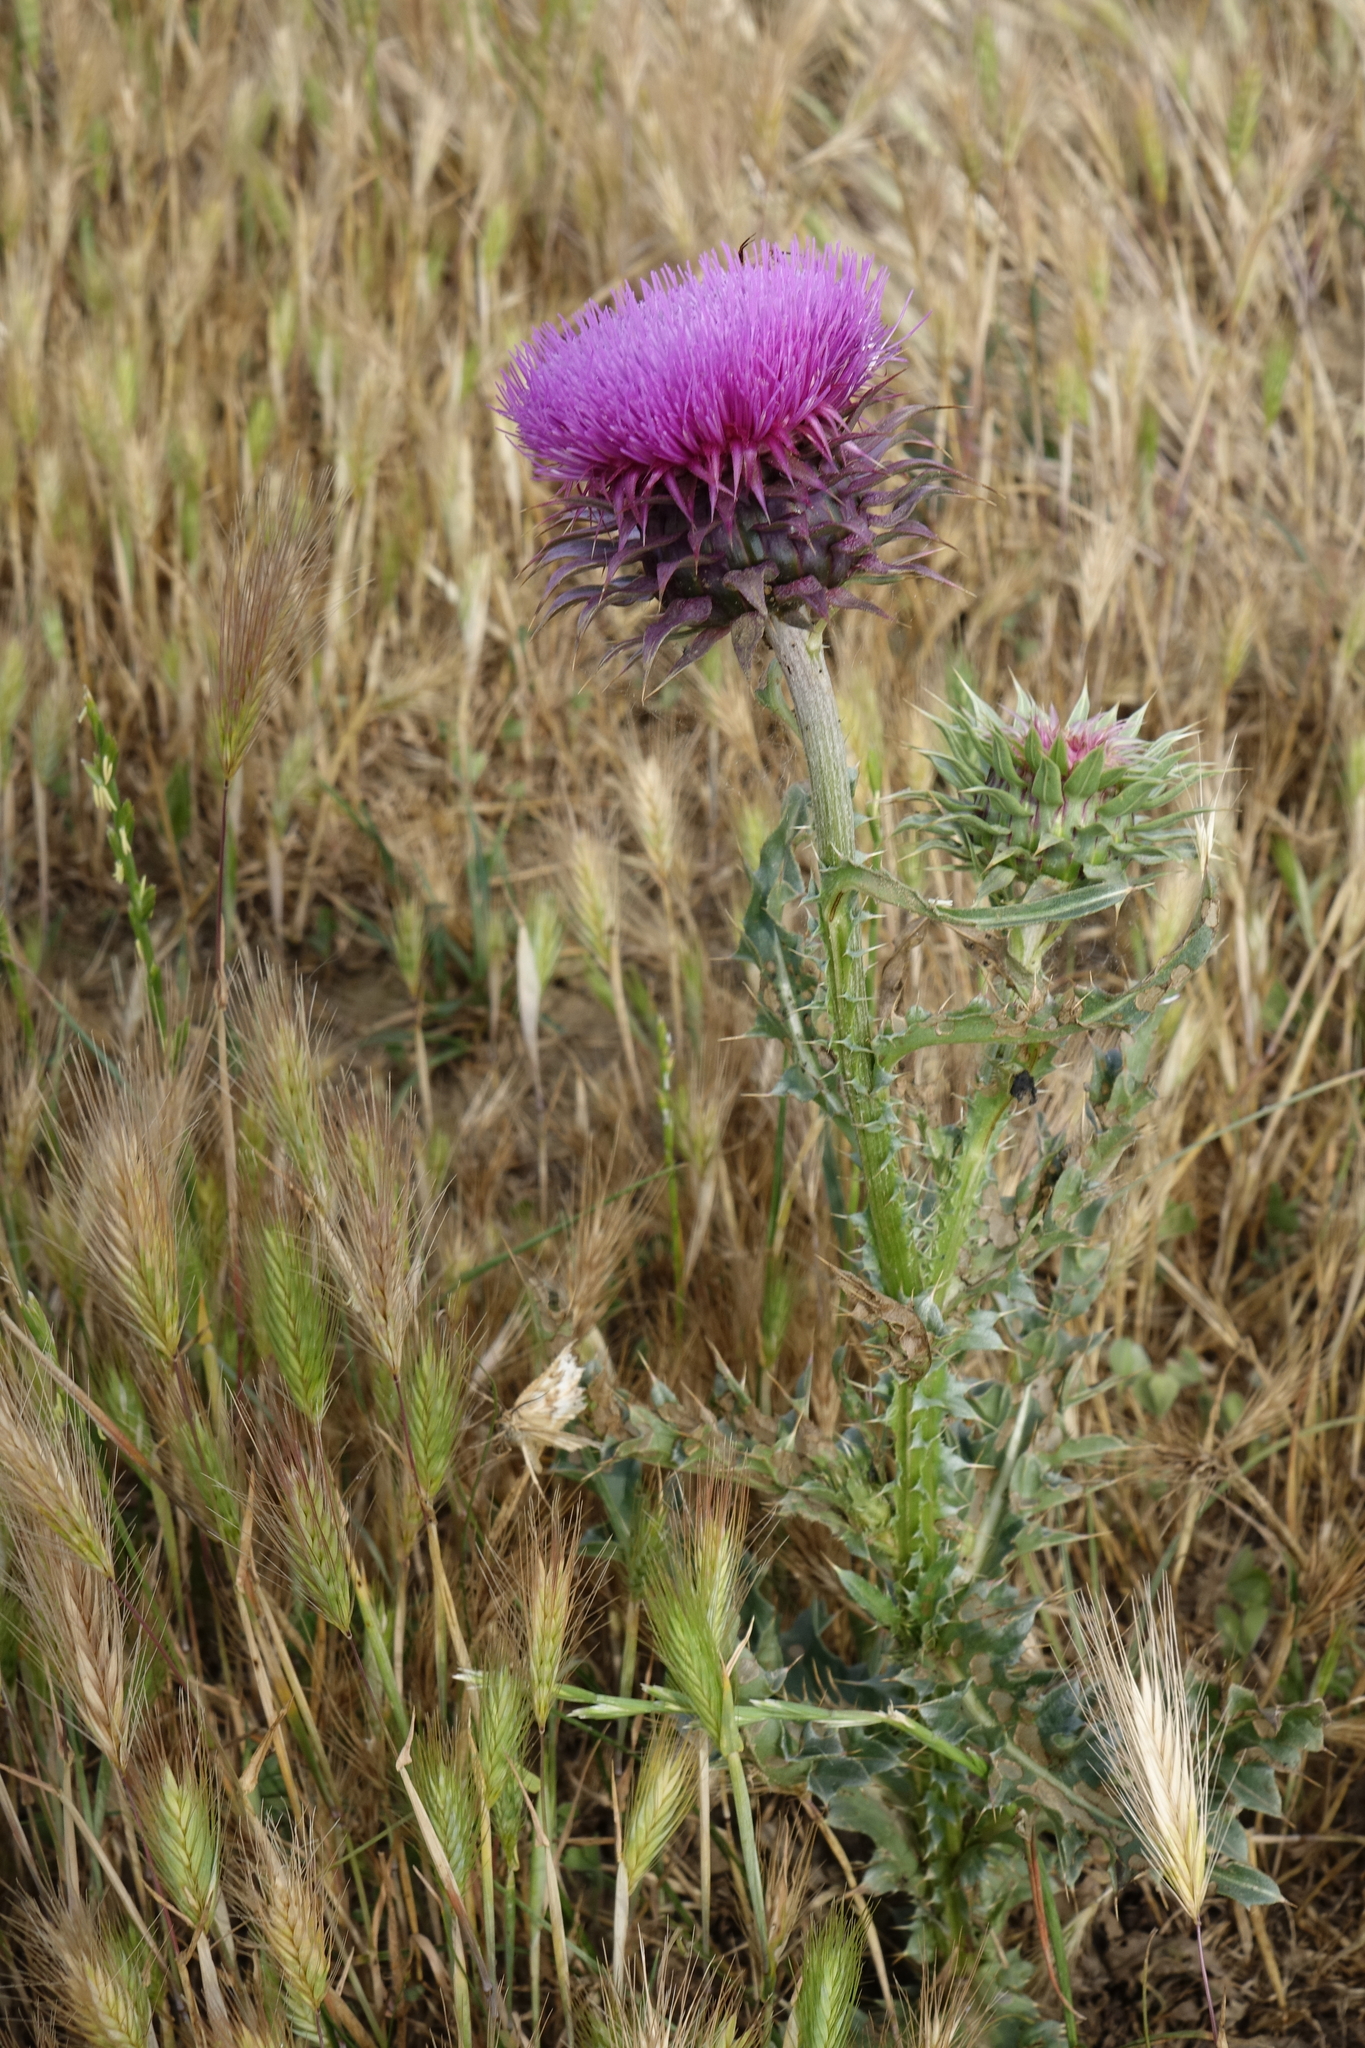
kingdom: Plantae
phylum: Tracheophyta
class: Magnoliopsida
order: Asterales
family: Asteraceae
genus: Carduus
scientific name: Carduus nutans
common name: Musk thistle
